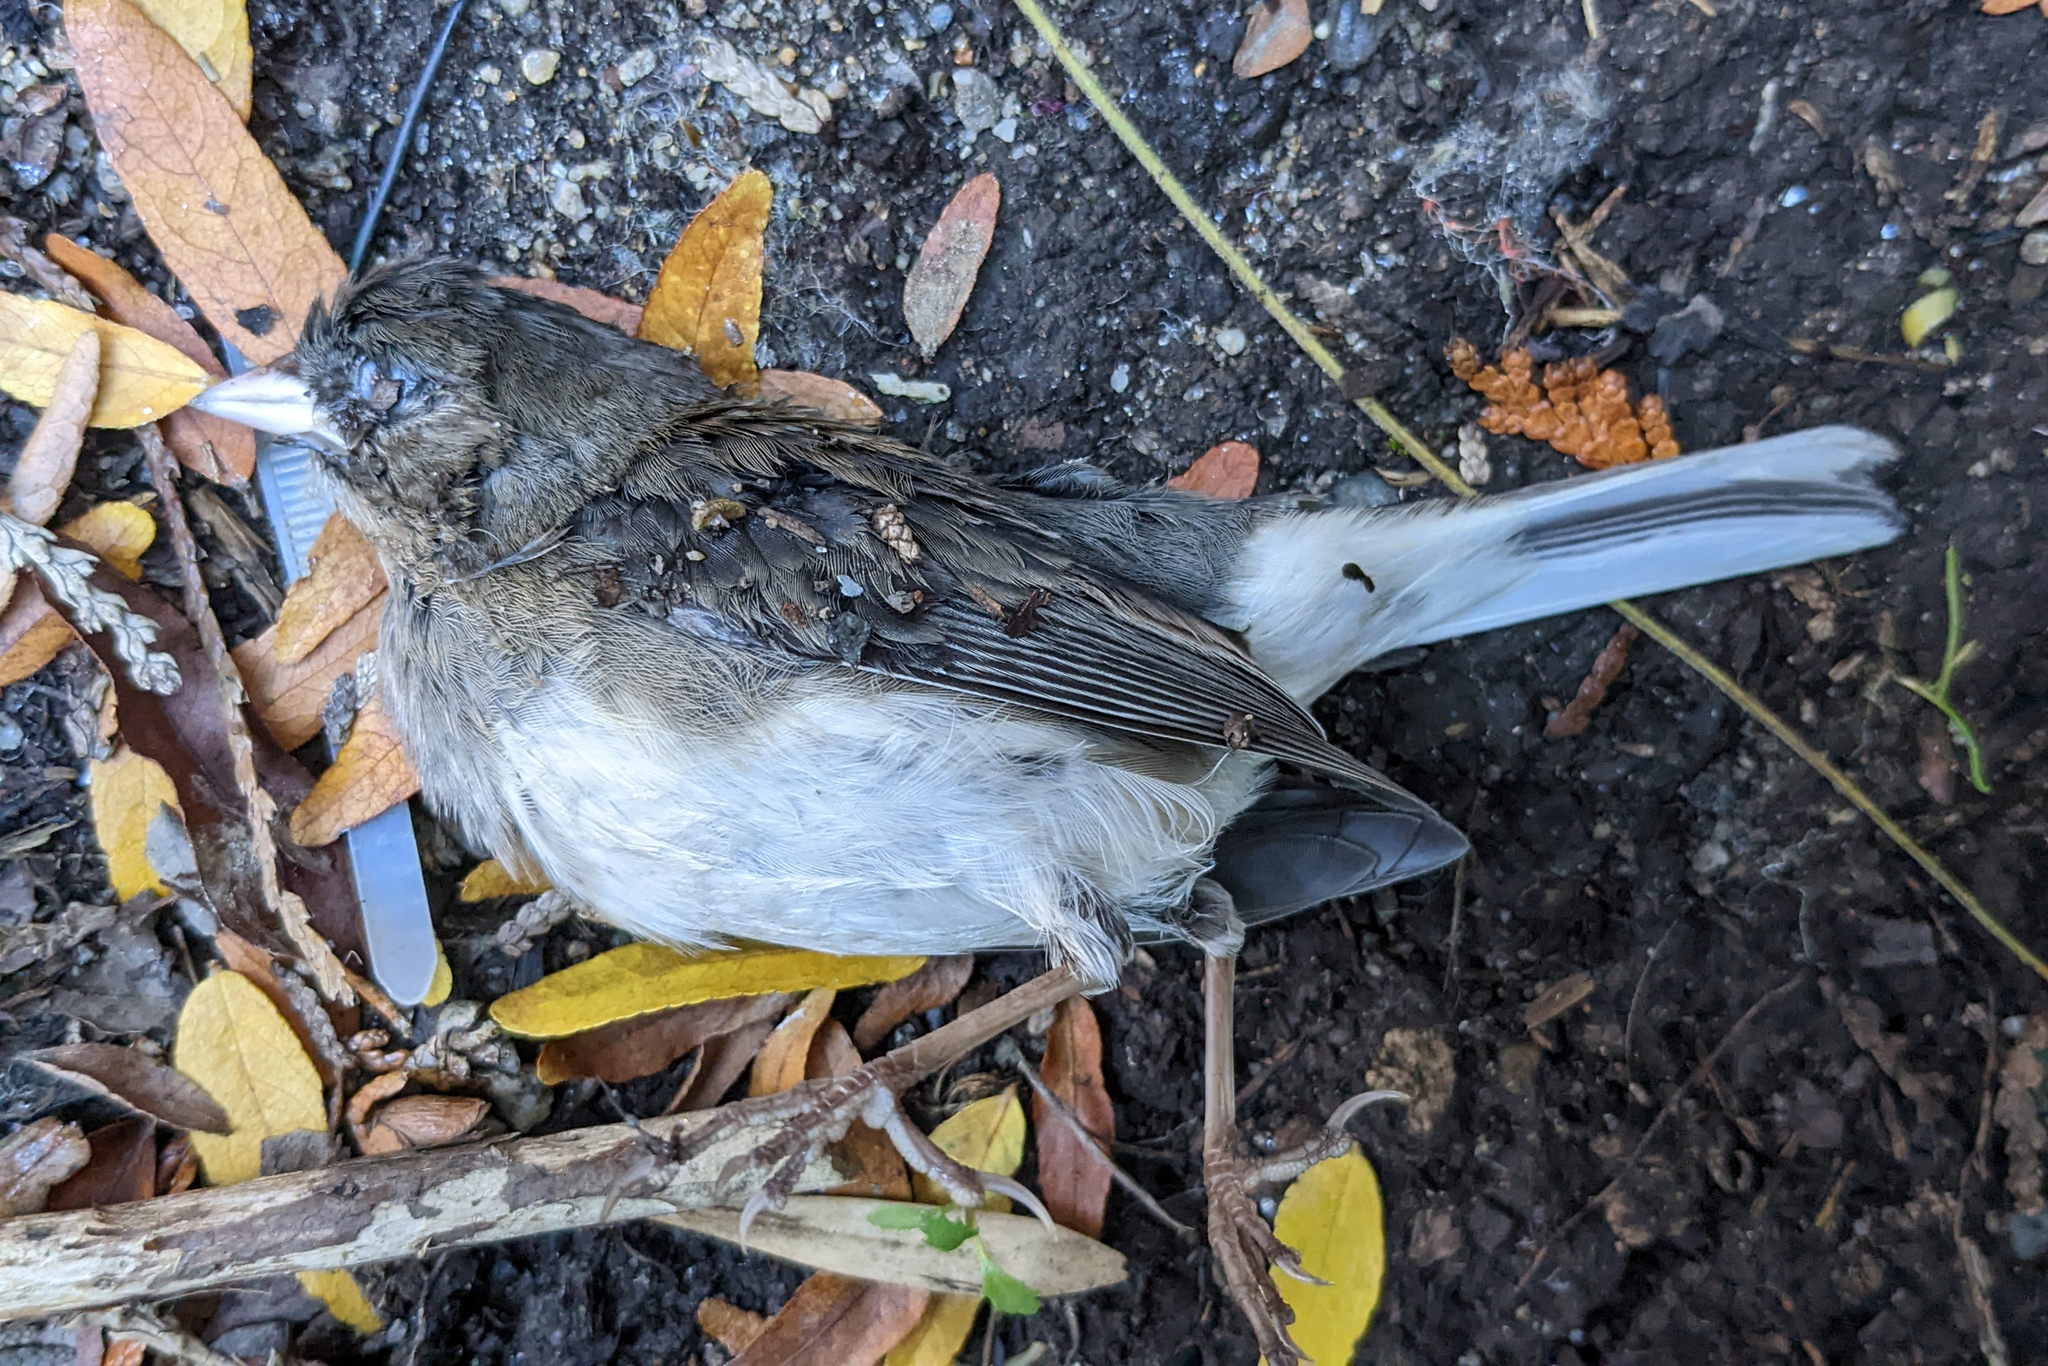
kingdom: Animalia
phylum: Chordata
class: Aves
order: Passeriformes
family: Passerellidae
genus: Junco
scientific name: Junco hyemalis
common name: Dark-eyed junco
